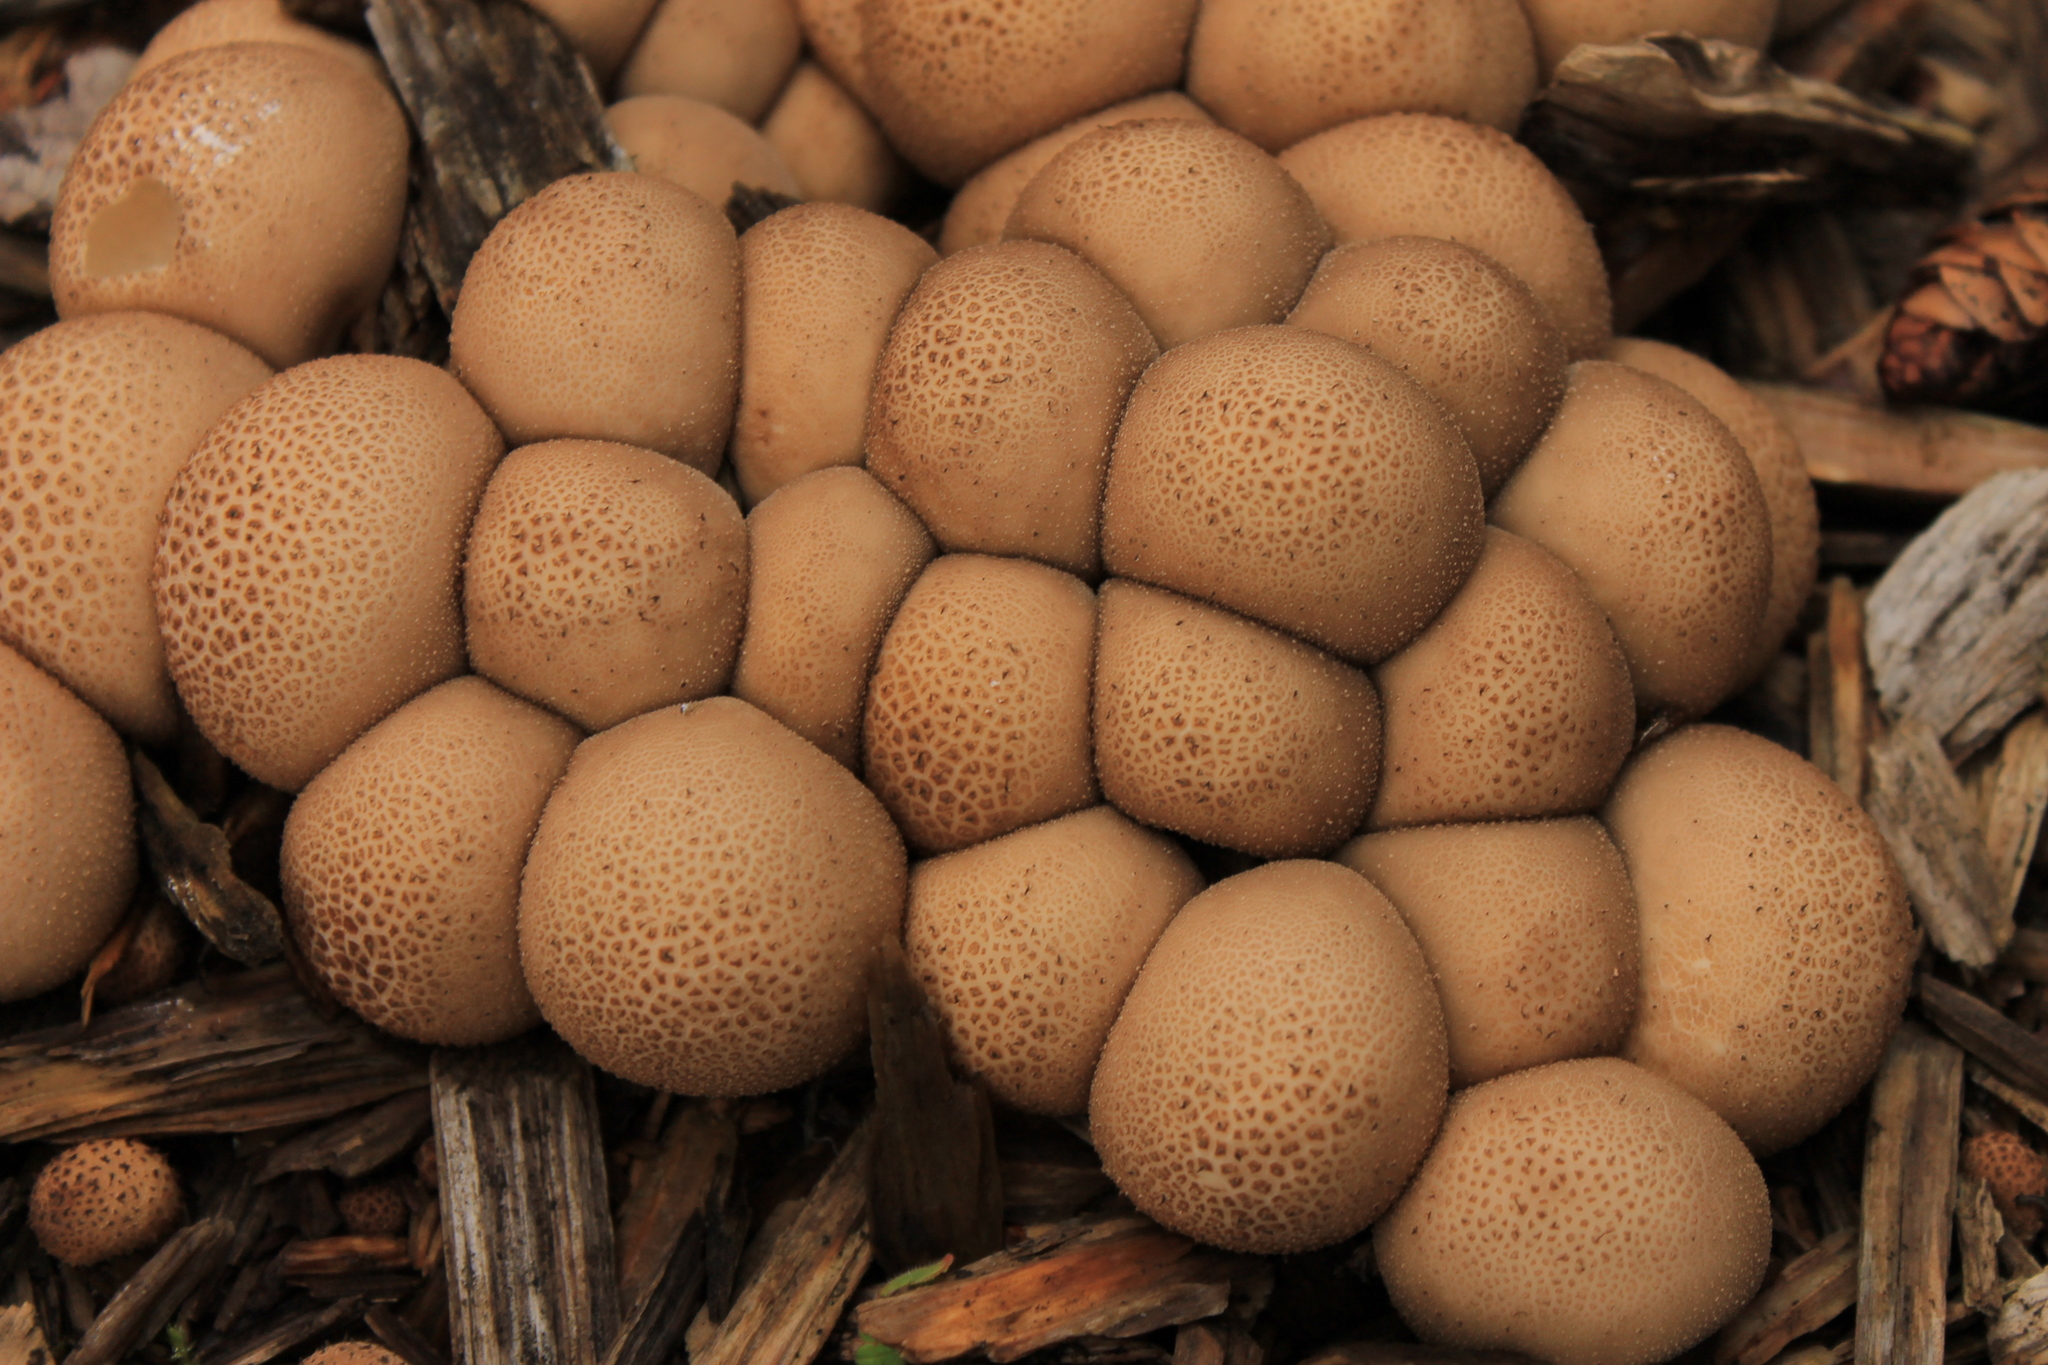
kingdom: Fungi
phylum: Basidiomycota
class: Agaricomycetes
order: Agaricales
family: Lycoperdaceae
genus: Apioperdon
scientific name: Apioperdon pyriforme
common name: Pear-shaped puffball
